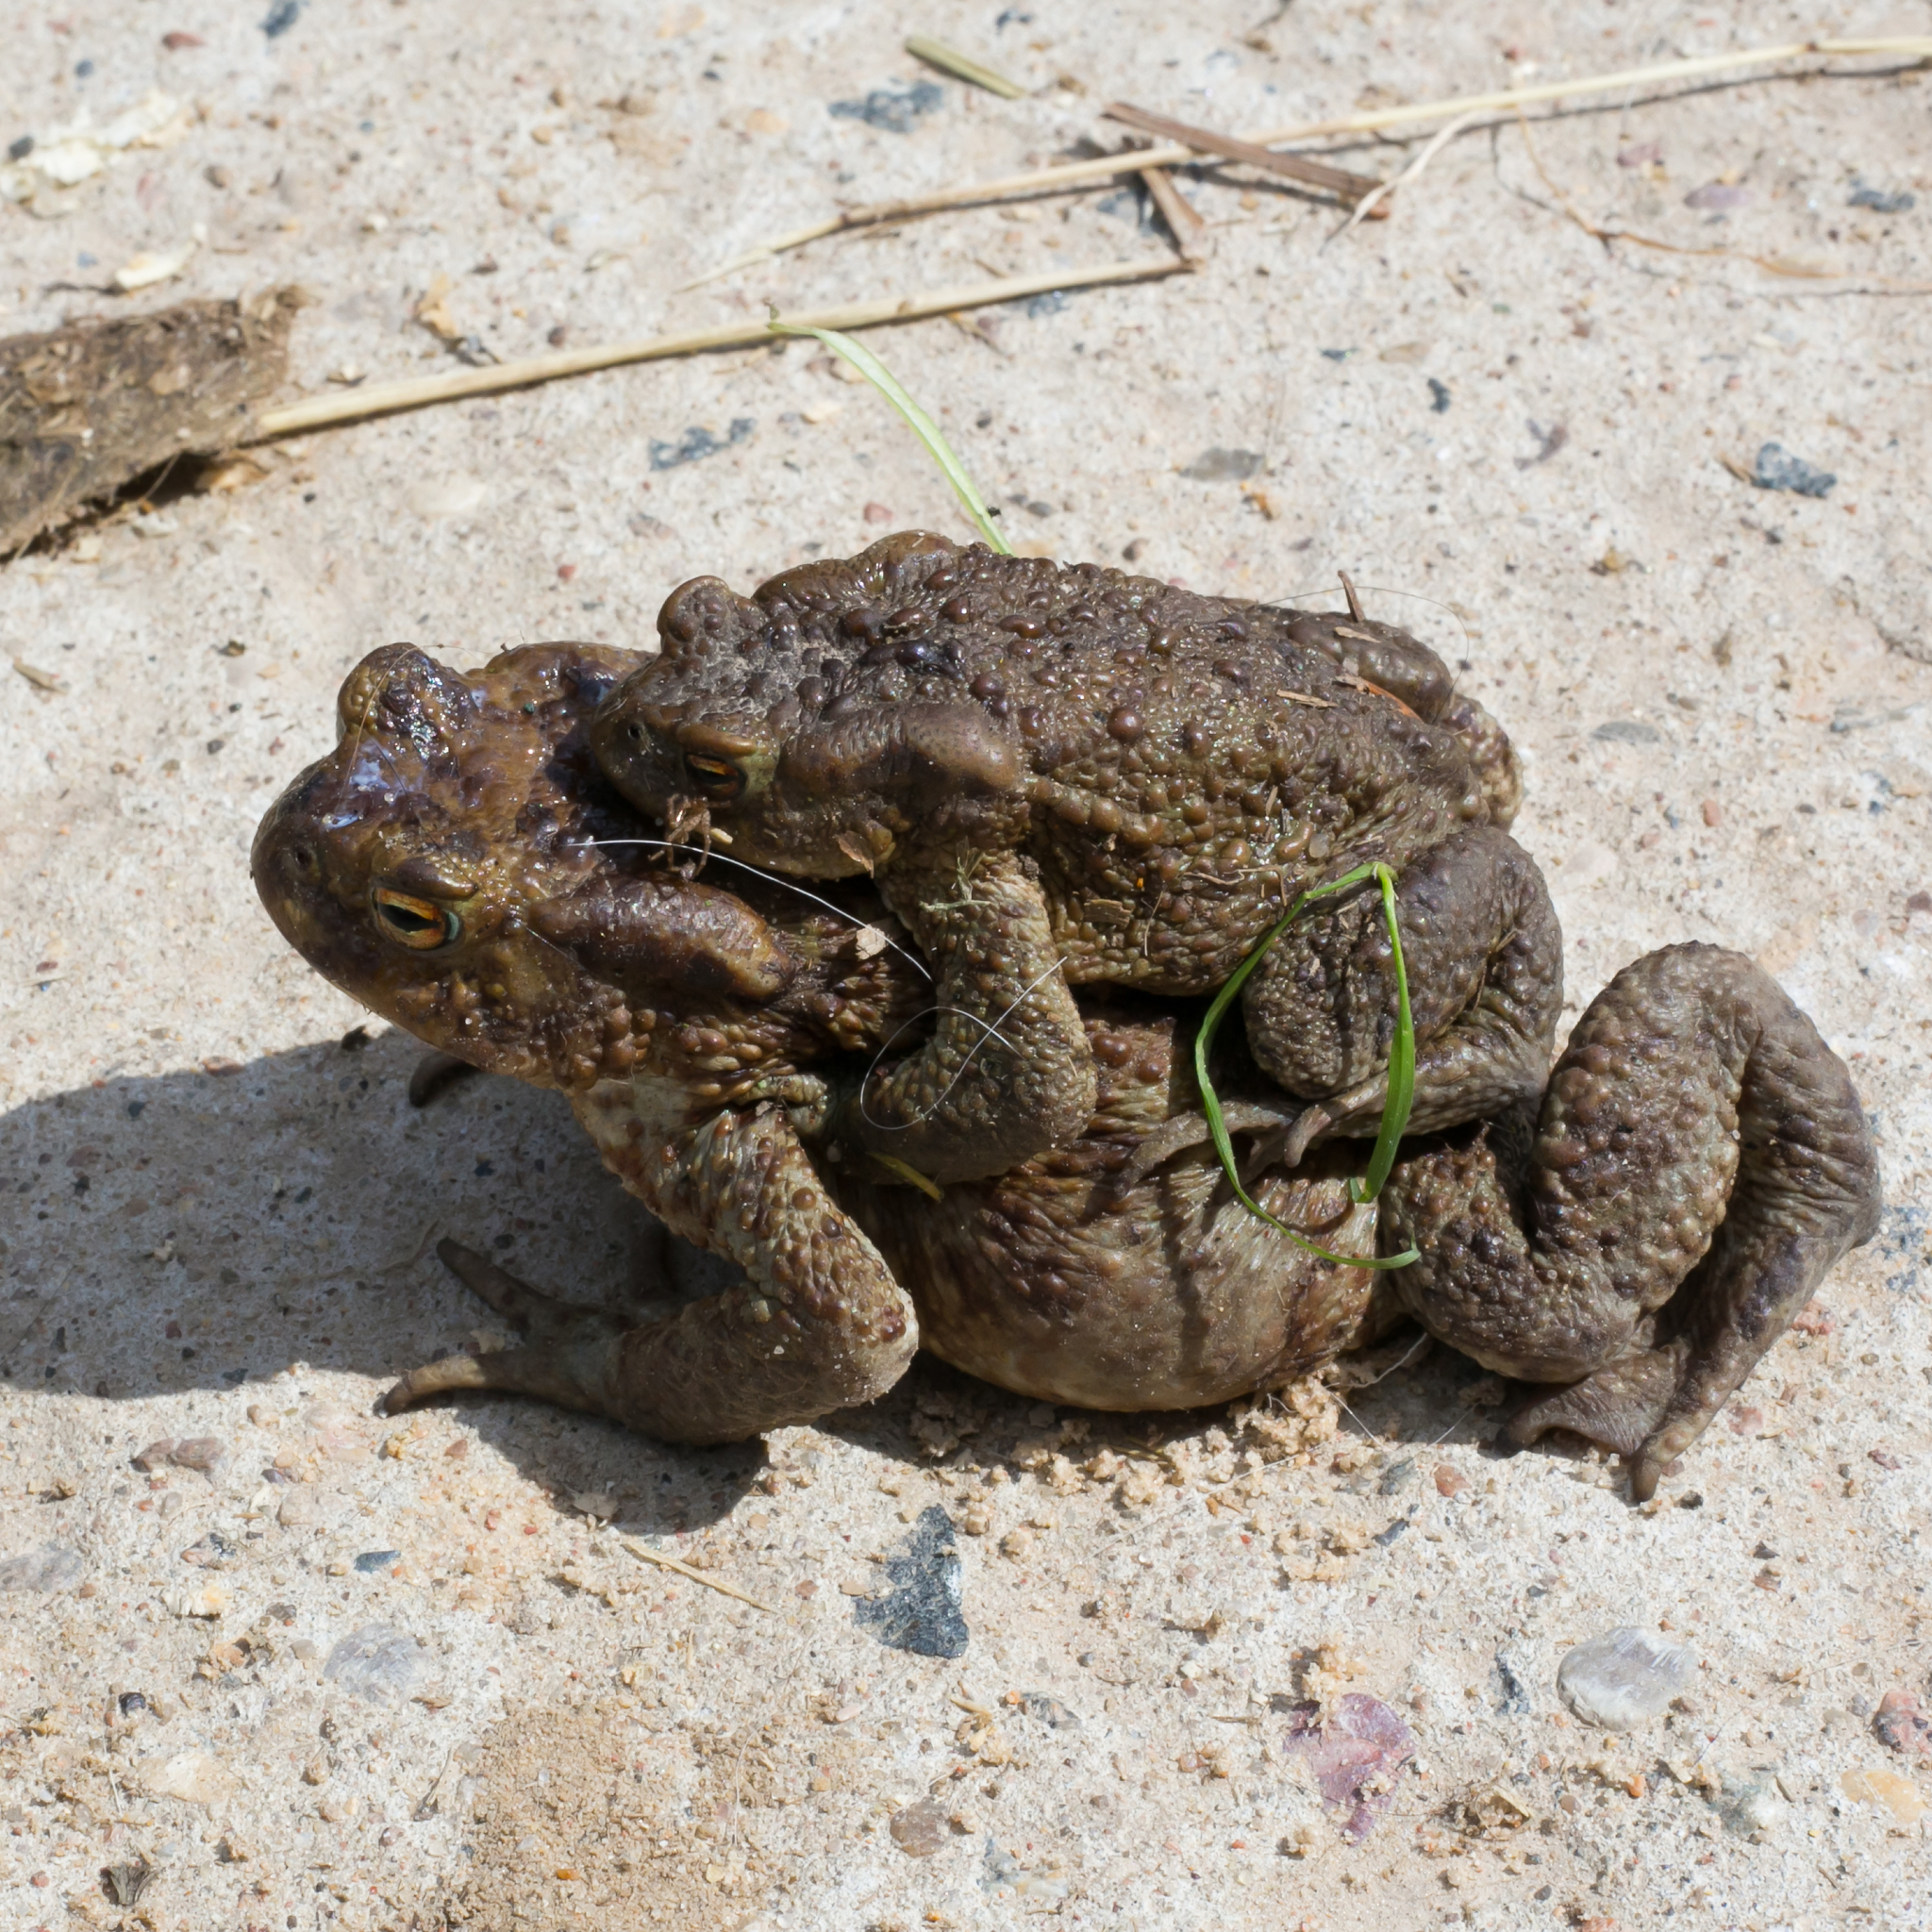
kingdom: Animalia
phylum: Chordata
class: Amphibia
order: Anura
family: Bufonidae
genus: Bufo
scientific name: Bufo bufo
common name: Common toad
